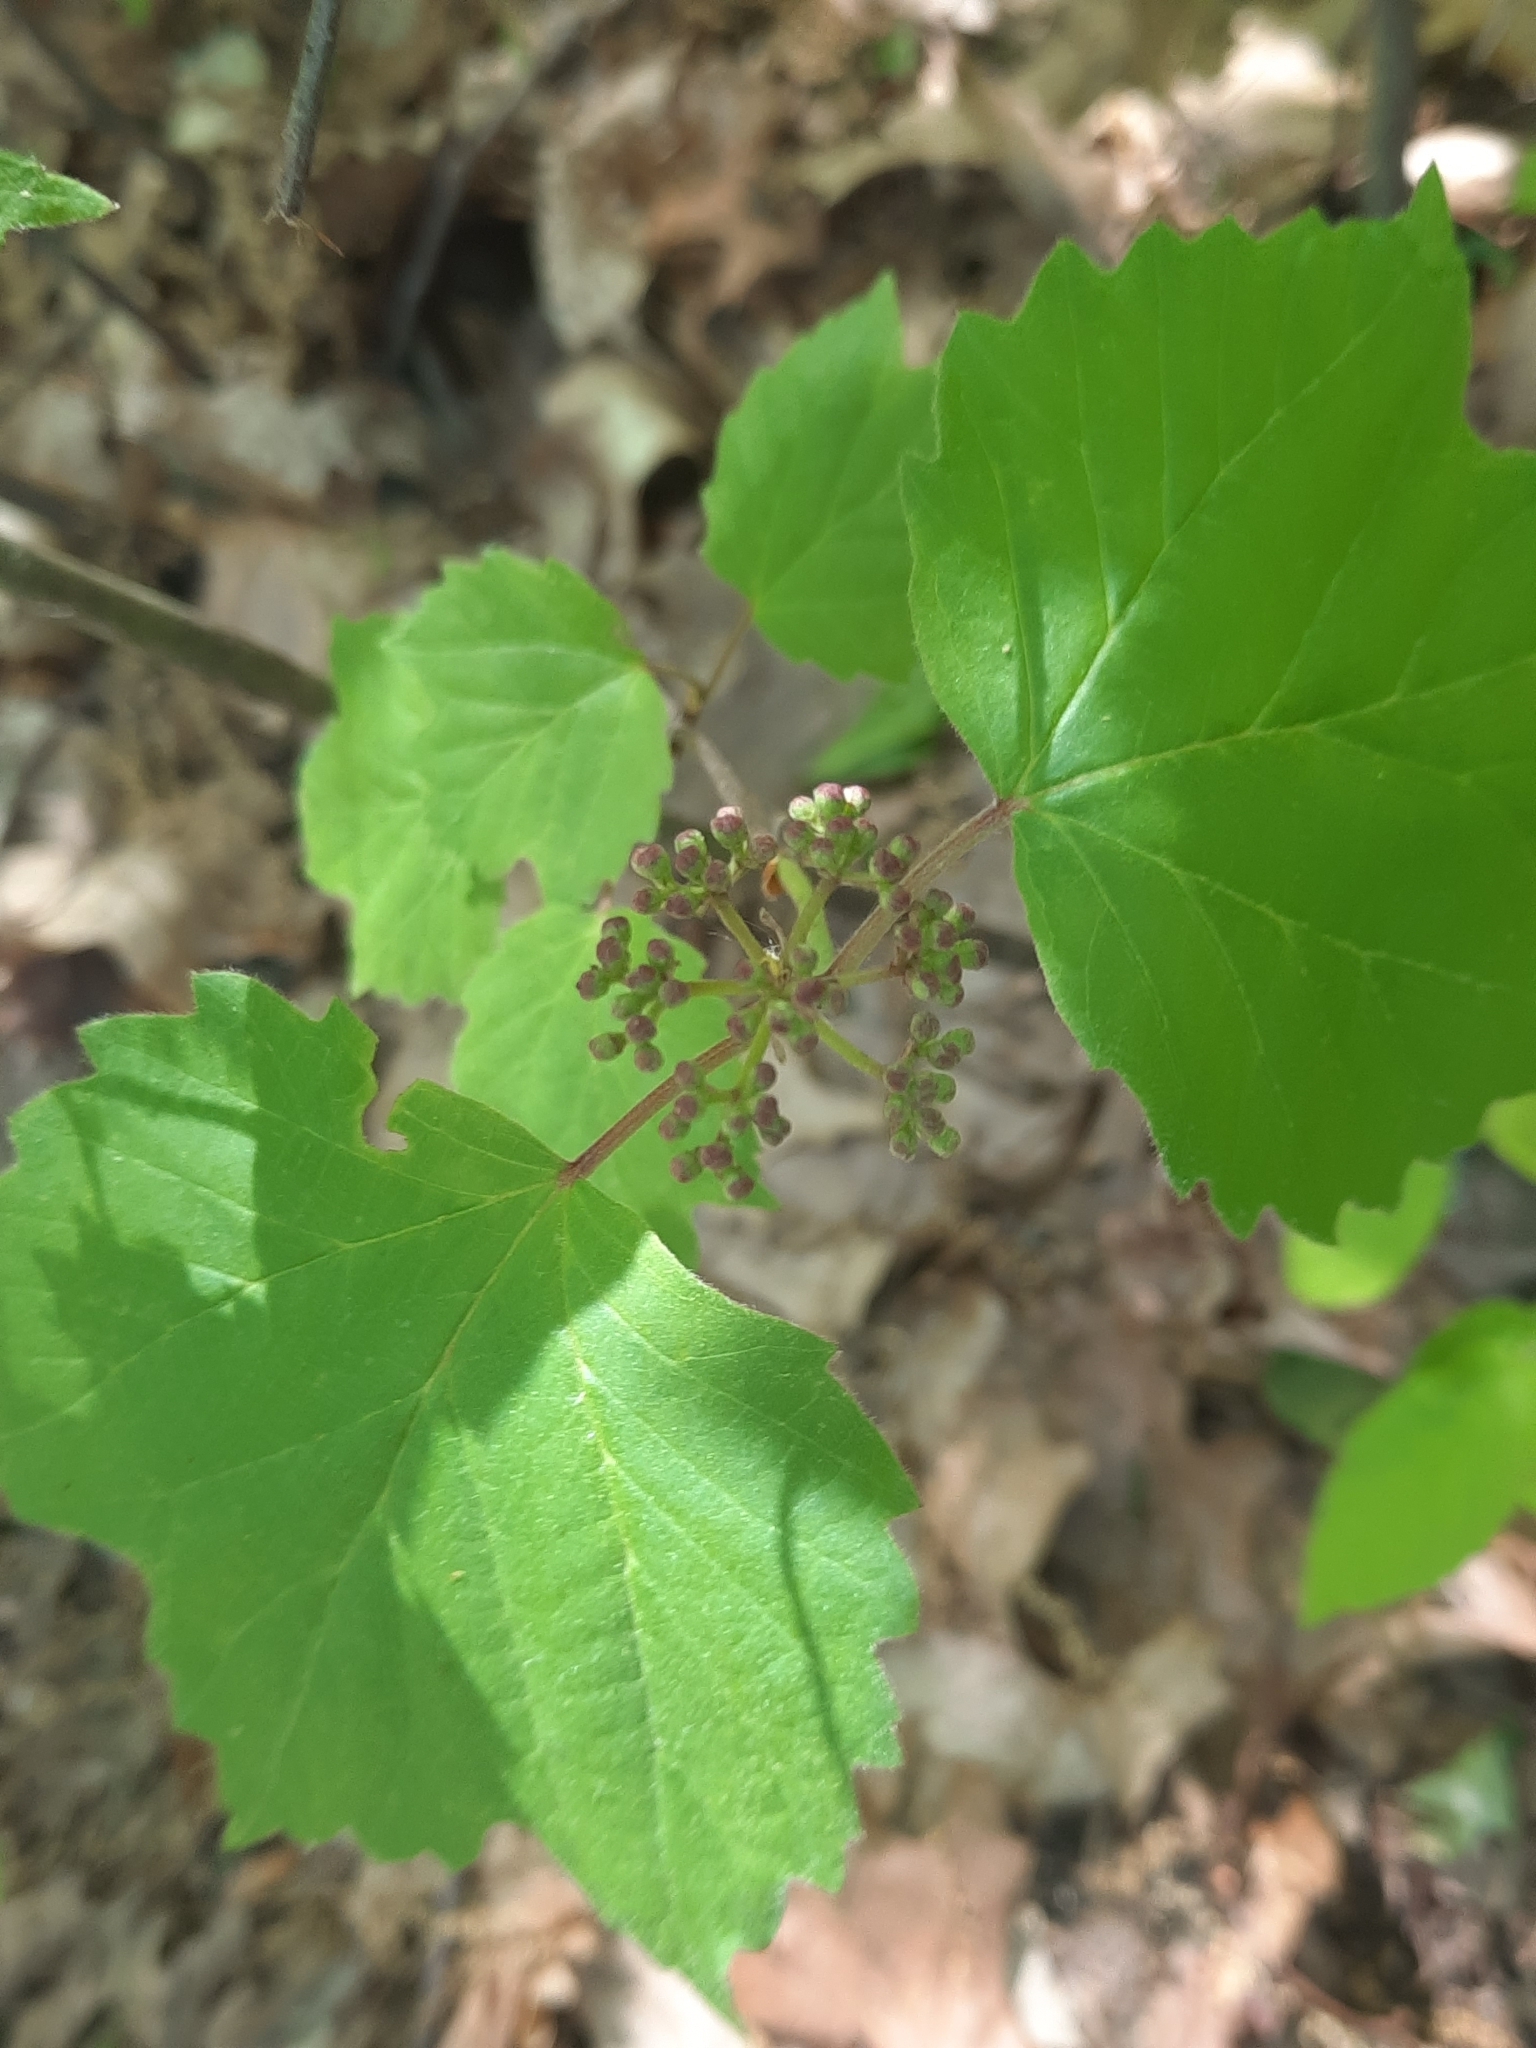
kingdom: Plantae
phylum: Tracheophyta
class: Magnoliopsida
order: Dipsacales
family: Viburnaceae
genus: Viburnum
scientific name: Viburnum acerifolium
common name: Dockmackie
